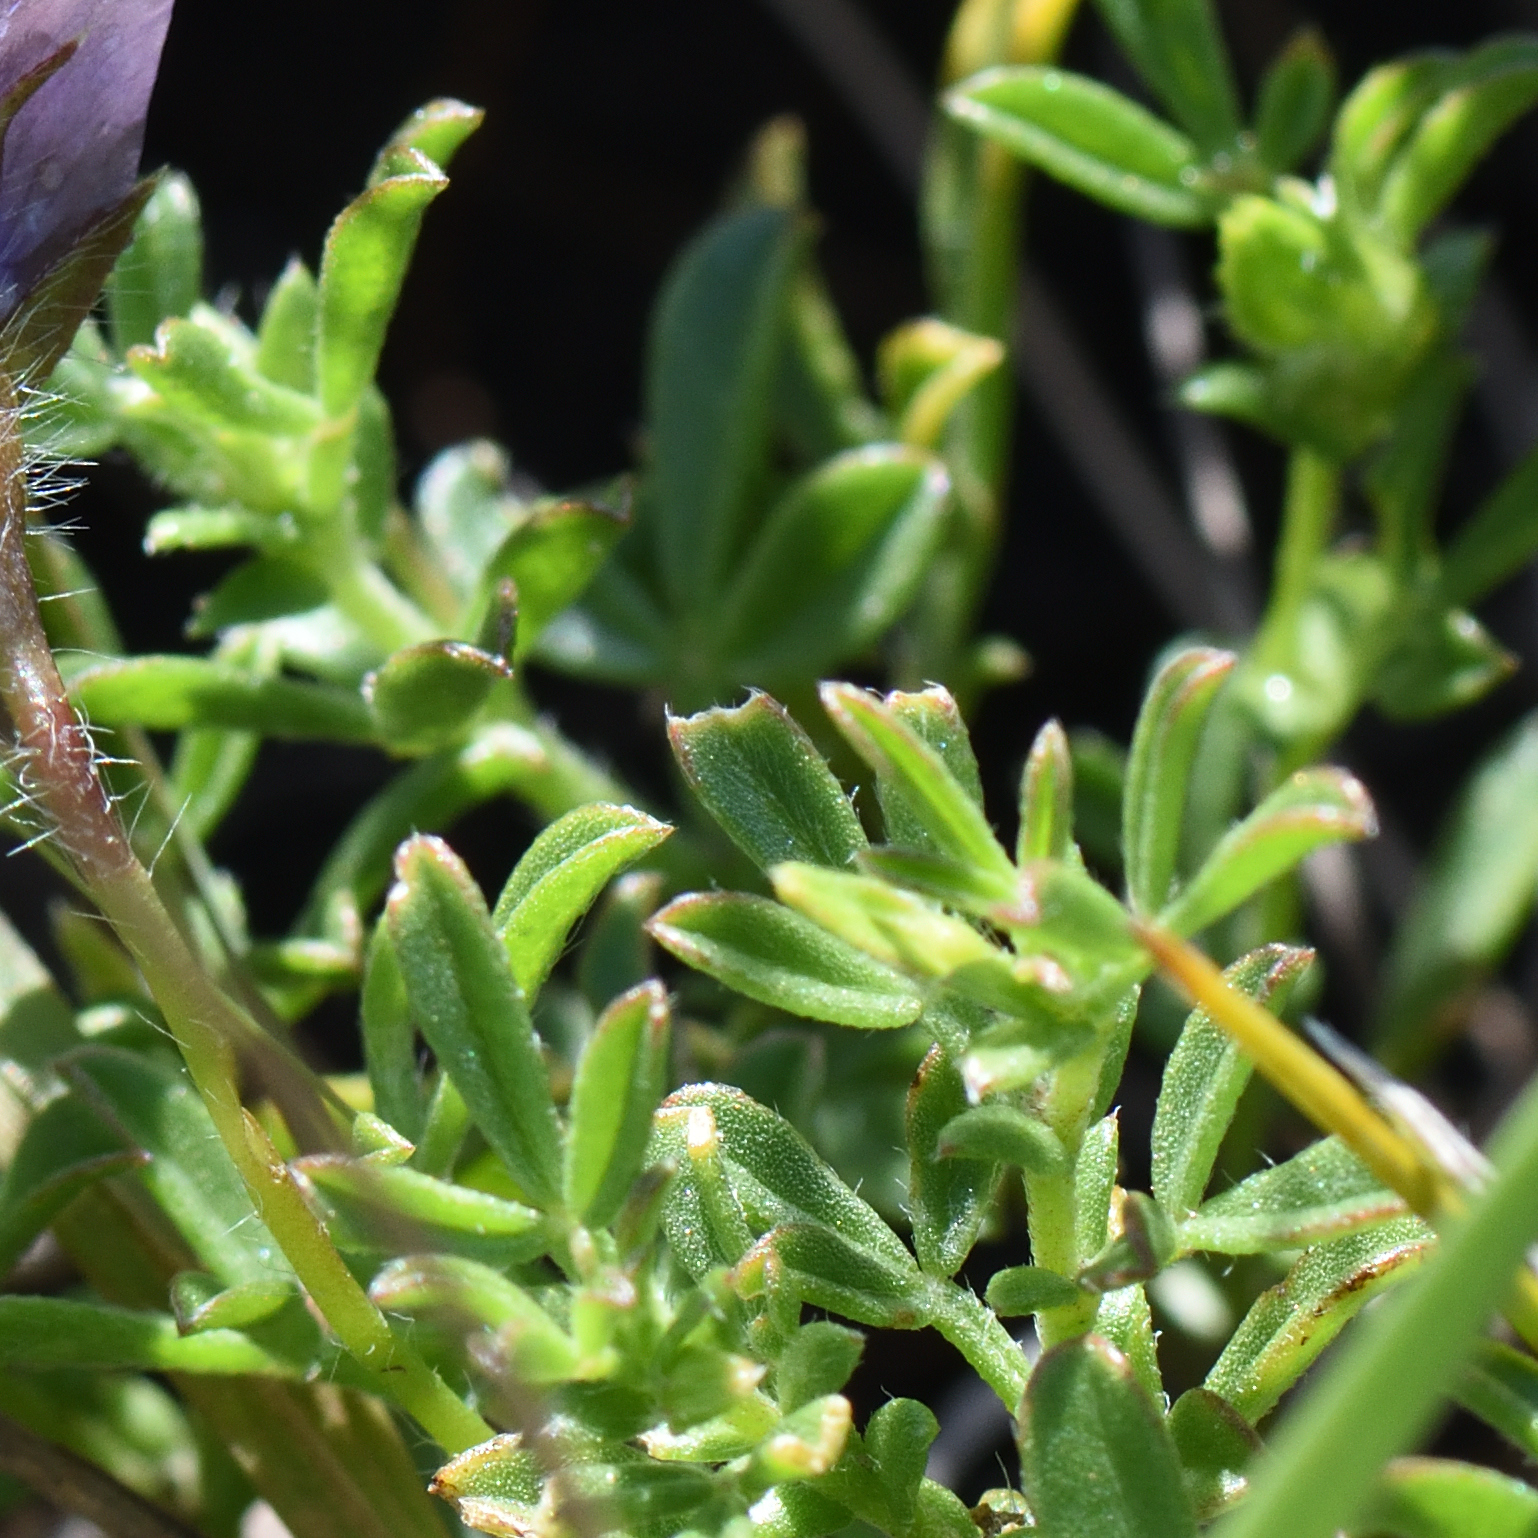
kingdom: Plantae
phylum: Tracheophyta
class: Magnoliopsida
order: Fabales
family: Fabaceae
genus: Lotononis
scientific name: Lotononis azurea
